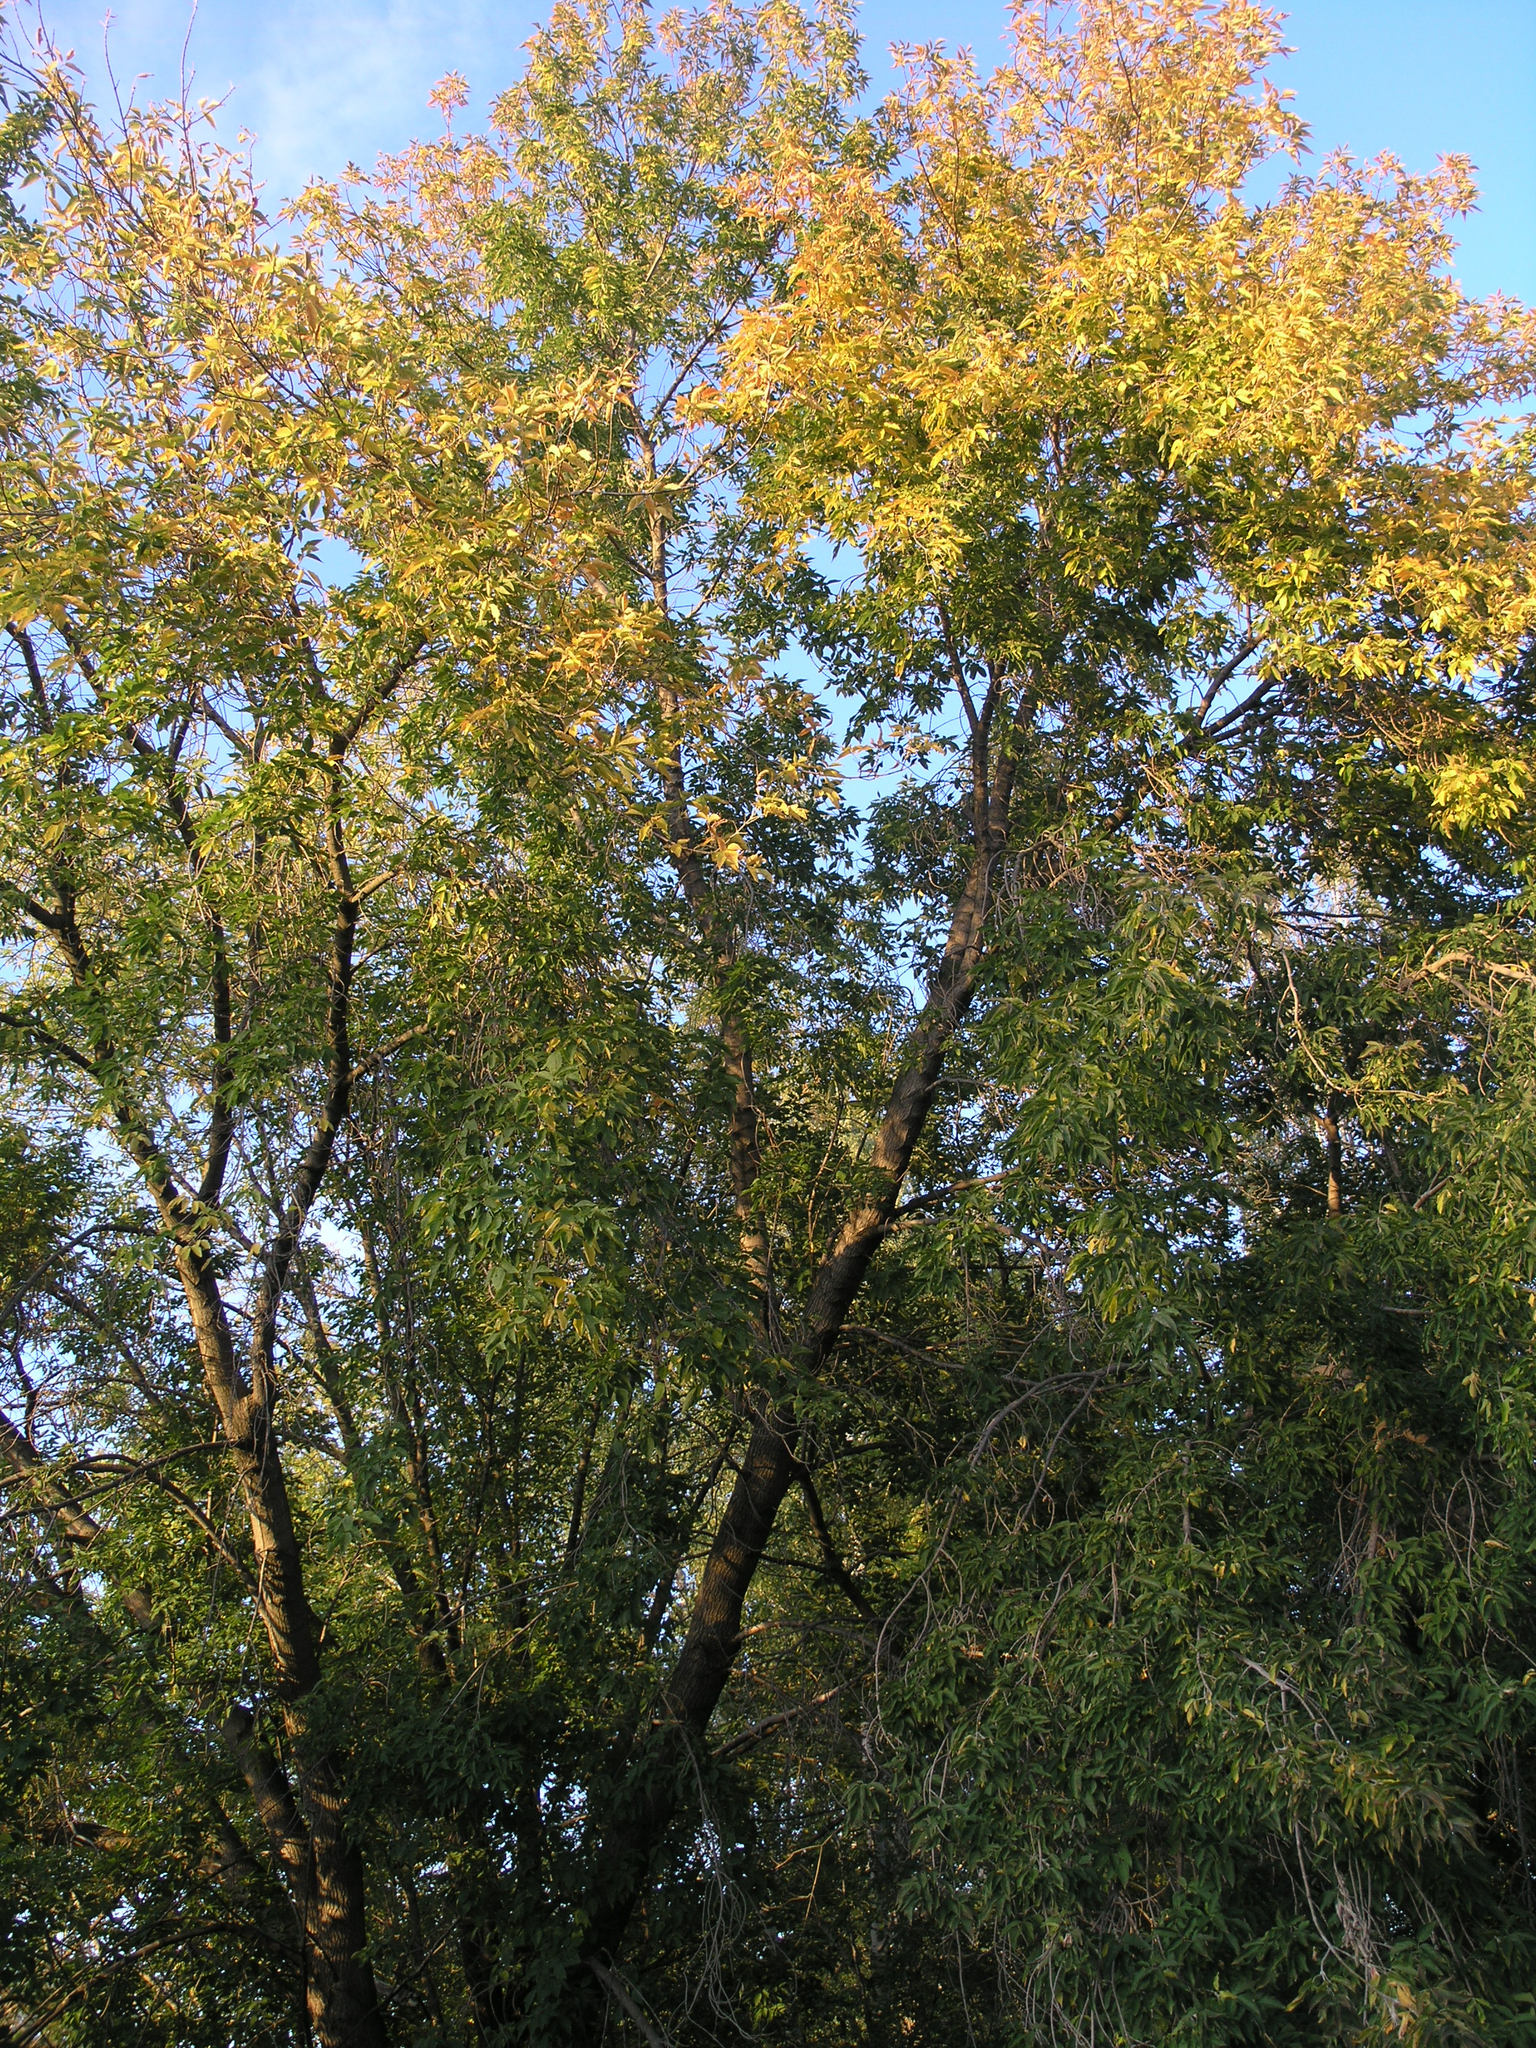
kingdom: Plantae
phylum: Tracheophyta
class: Magnoliopsida
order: Sapindales
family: Sapindaceae
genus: Acer
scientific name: Acer negundo
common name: Ashleaf maple
